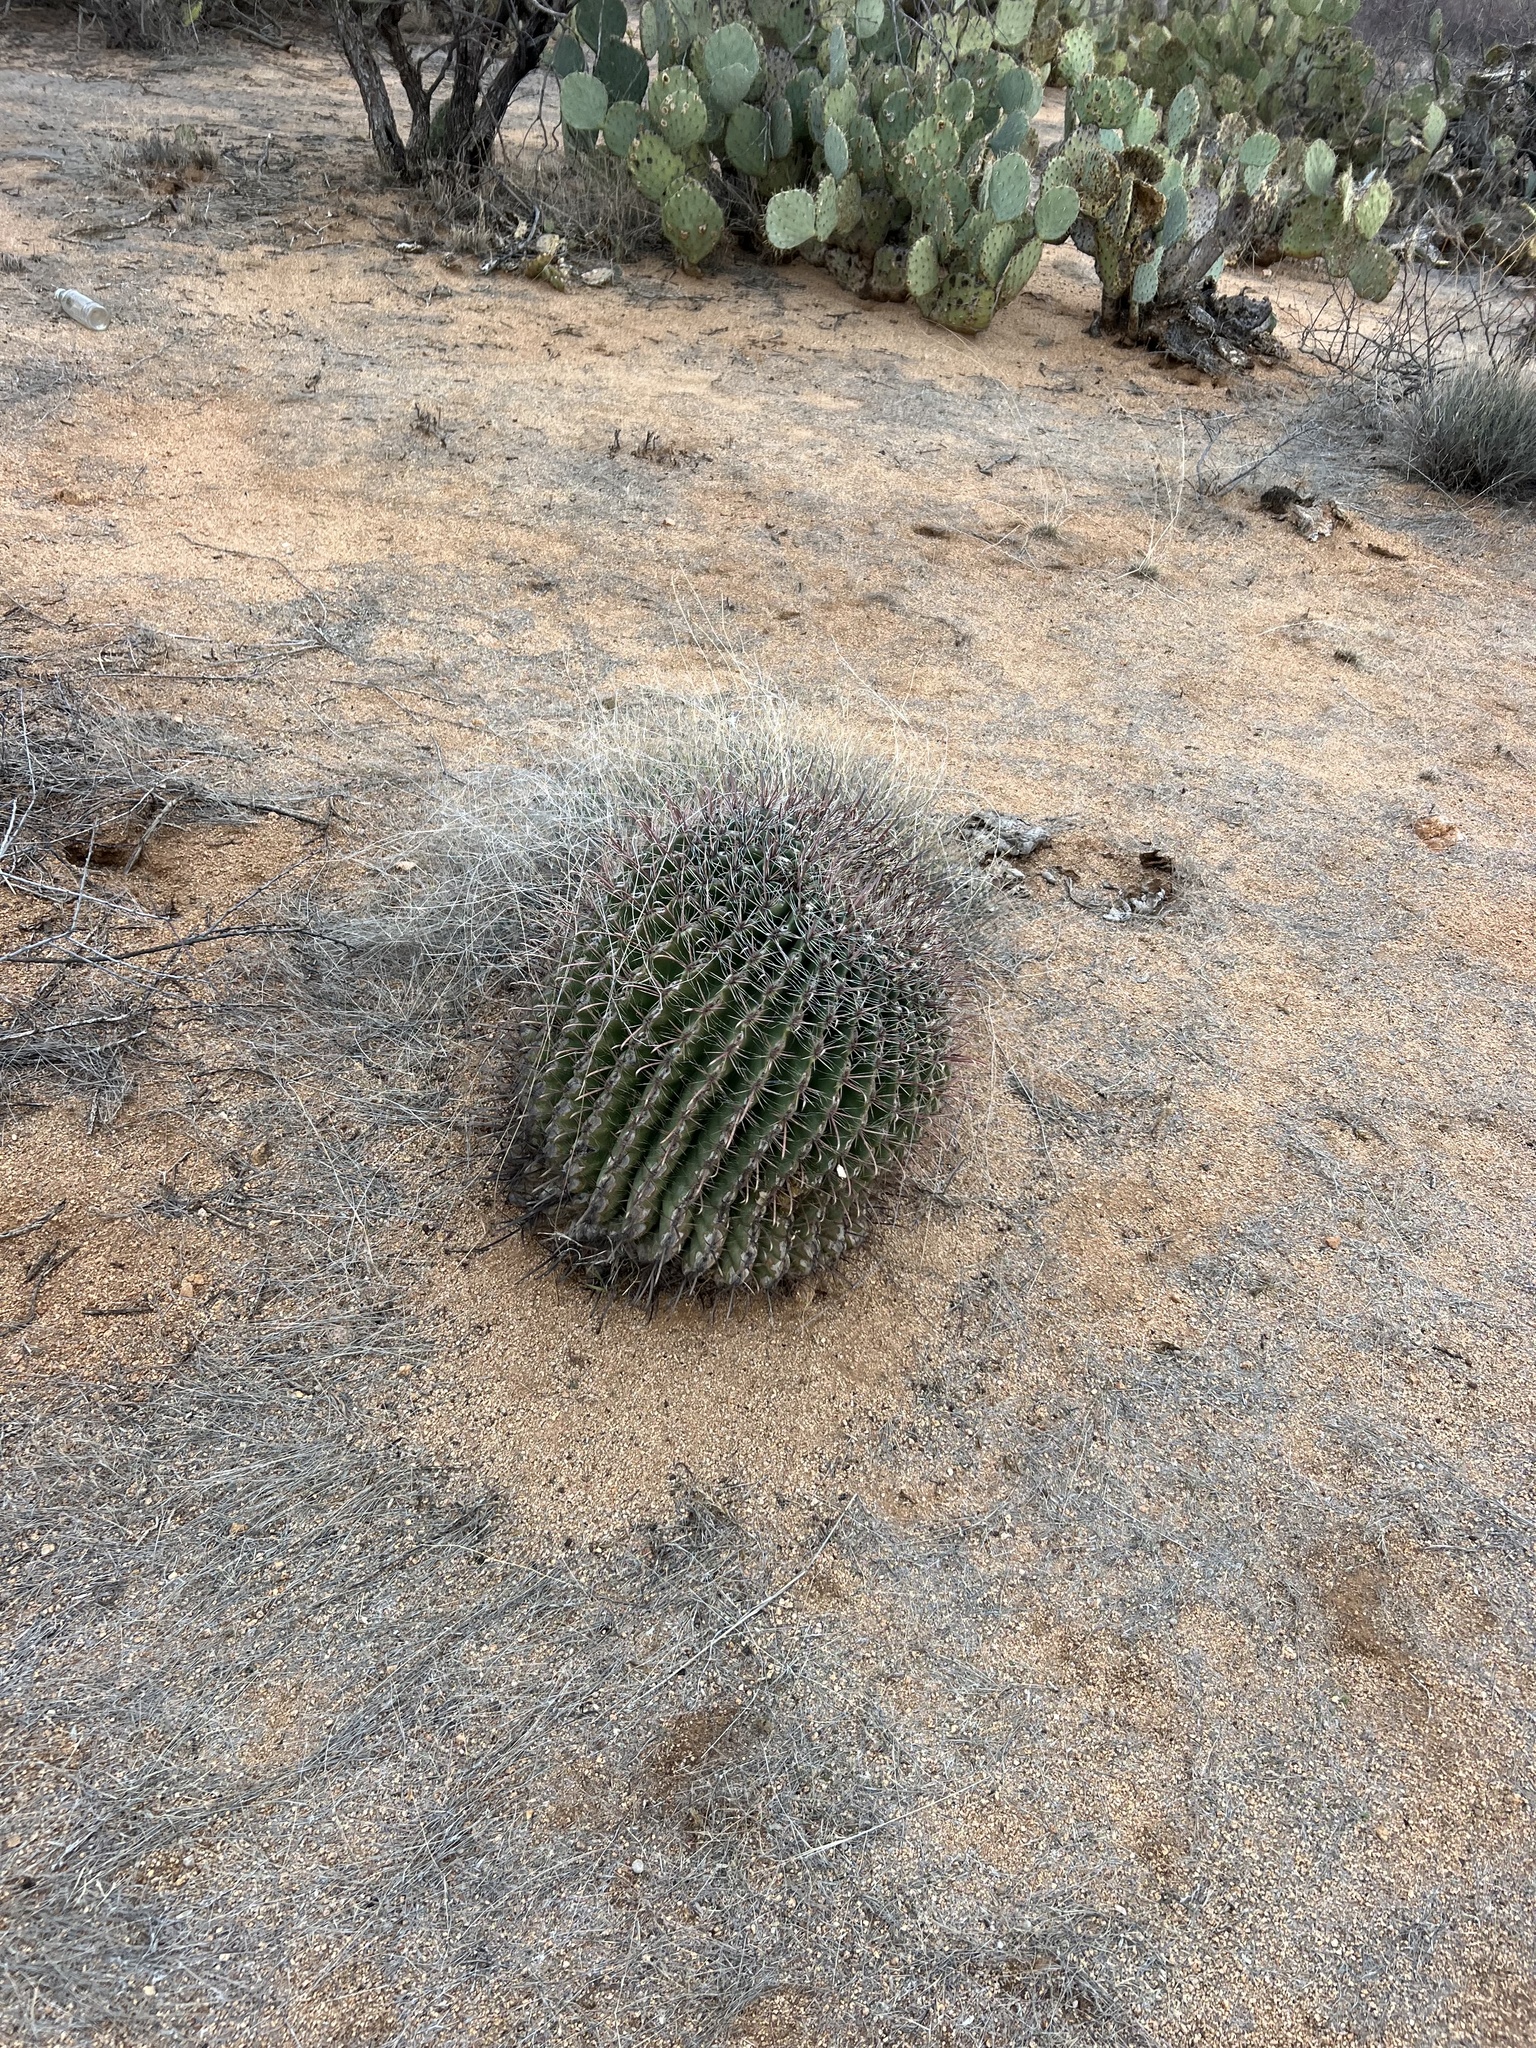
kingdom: Plantae
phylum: Tracheophyta
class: Magnoliopsida
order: Caryophyllales
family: Cactaceae
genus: Ferocactus
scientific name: Ferocactus wislizeni
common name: Candy barrel cactus
